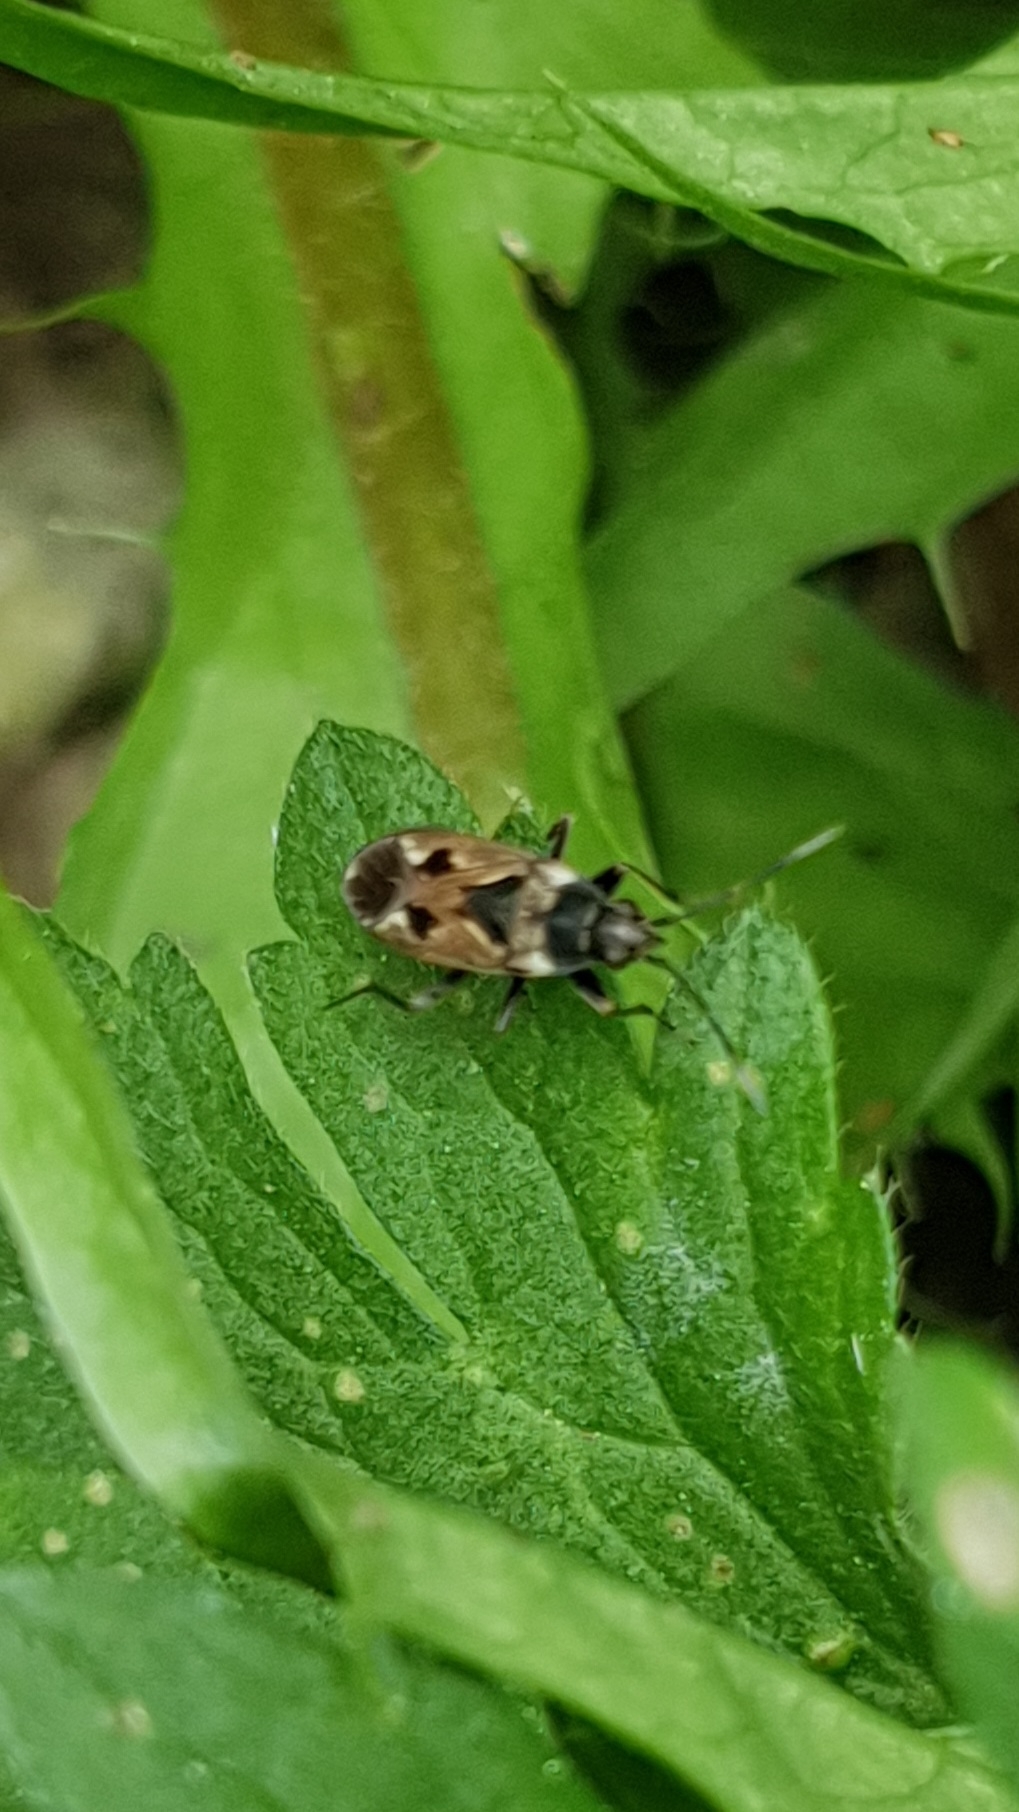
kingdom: Animalia
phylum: Arthropoda
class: Insecta
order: Hemiptera
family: Rhyparochromidae
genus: Rhyparochromus
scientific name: Rhyparochromus vulgaris
